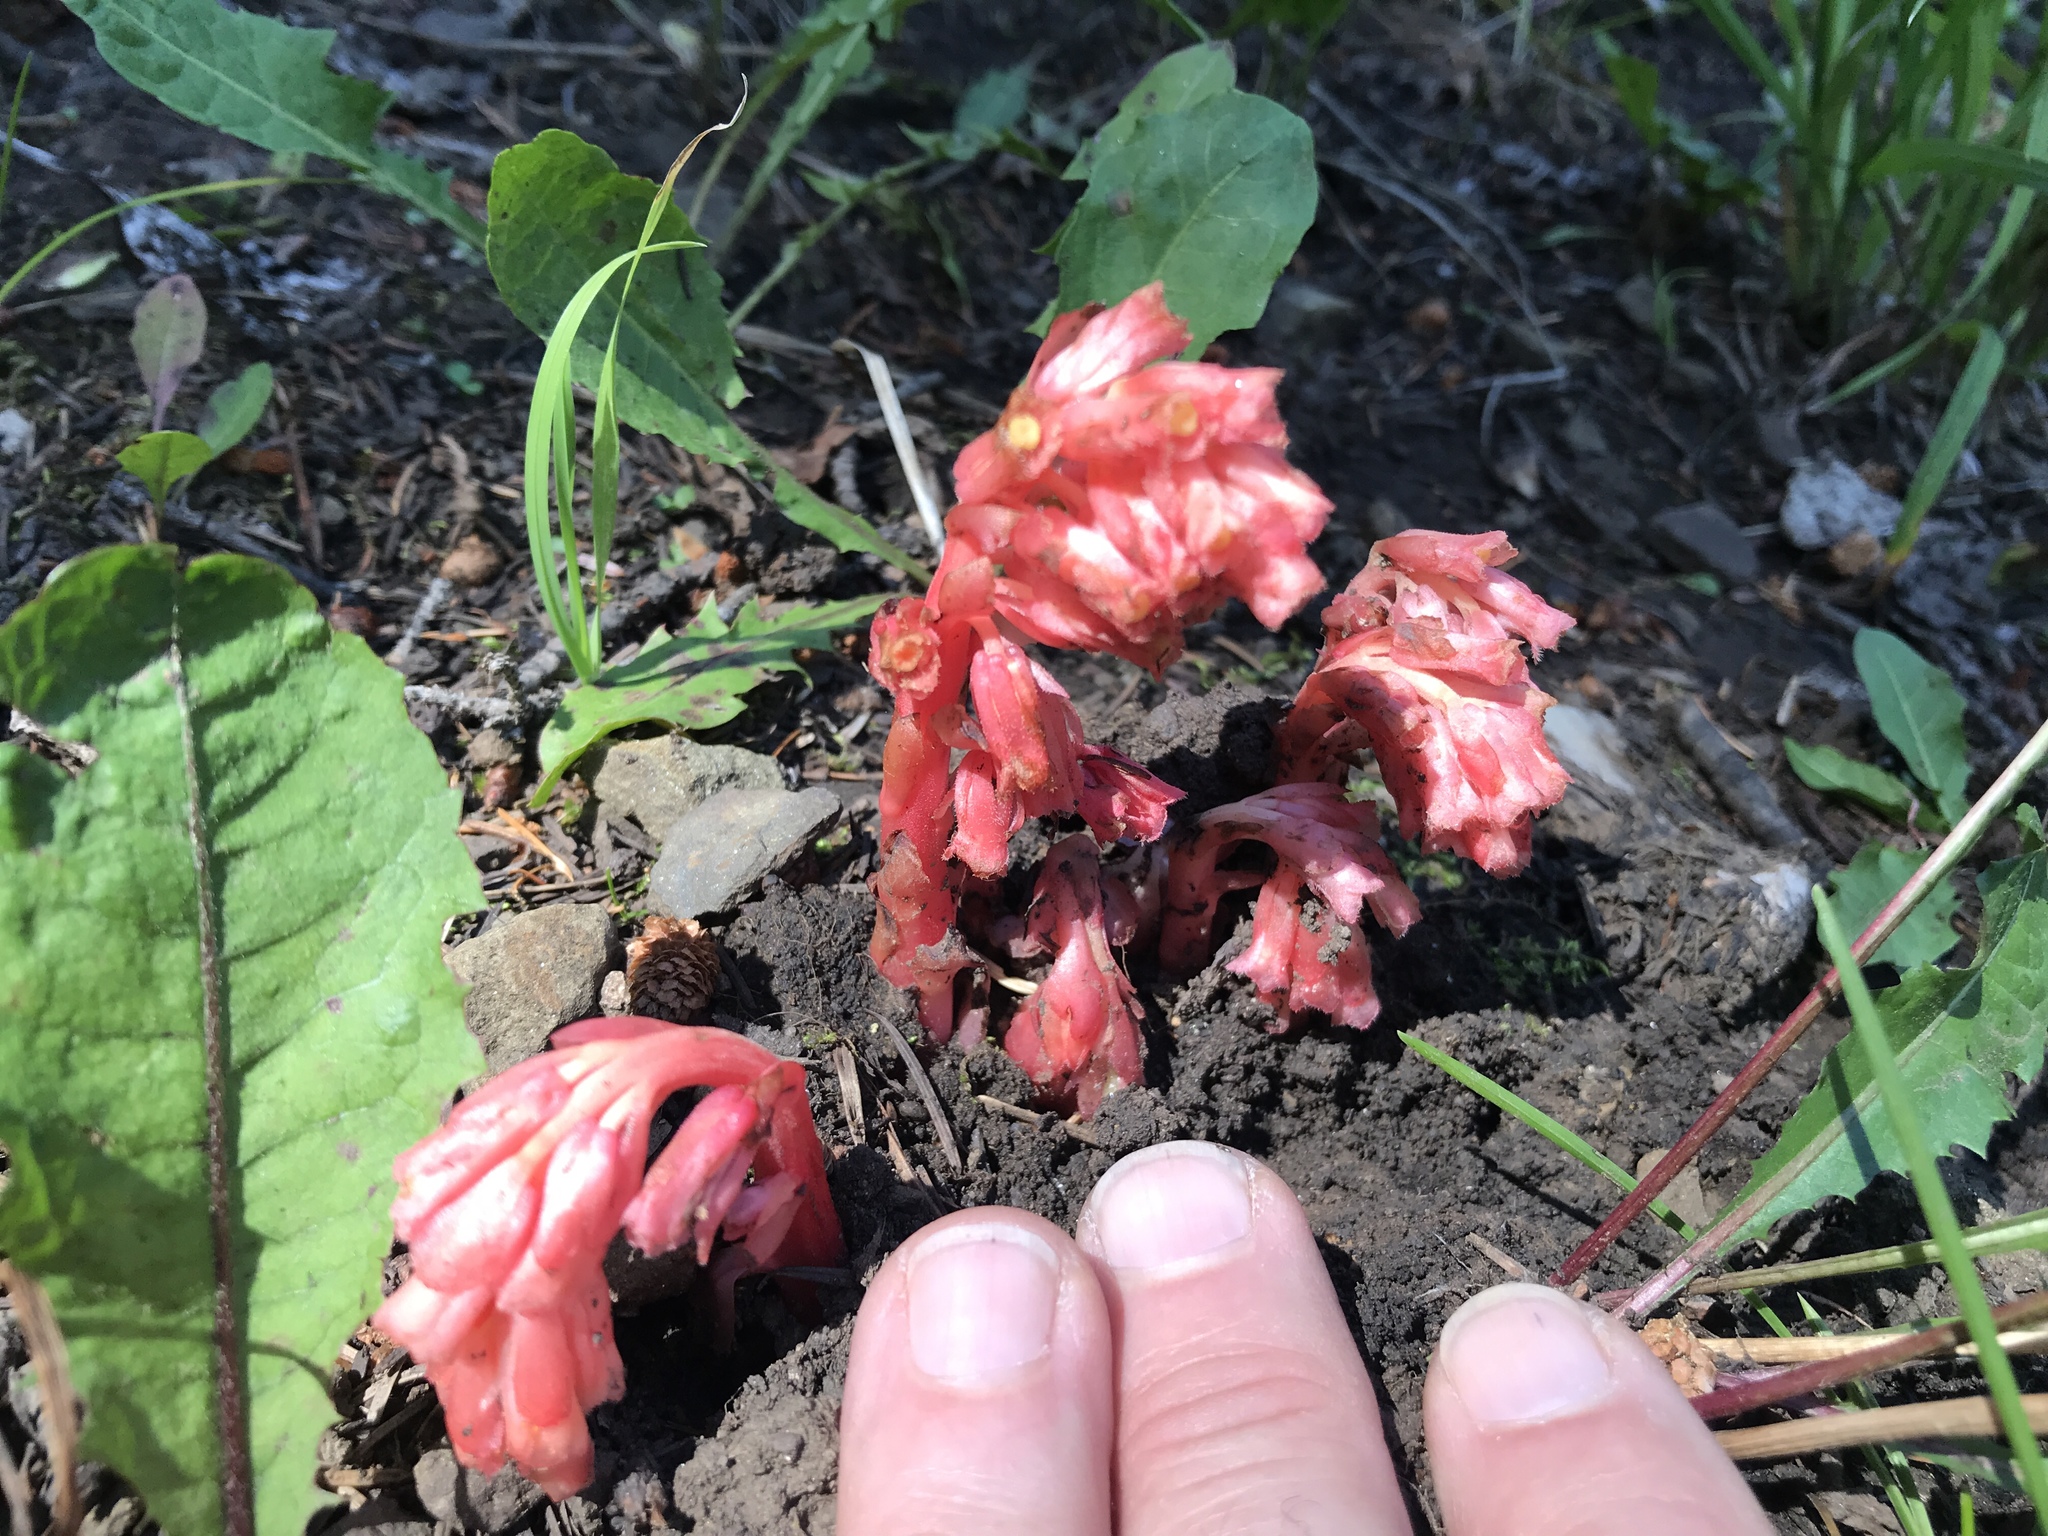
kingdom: Plantae
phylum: Tracheophyta
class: Magnoliopsida
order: Ericales
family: Ericaceae
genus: Hypopitys
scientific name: Hypopitys monotropa
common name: Yellow bird's-nest
